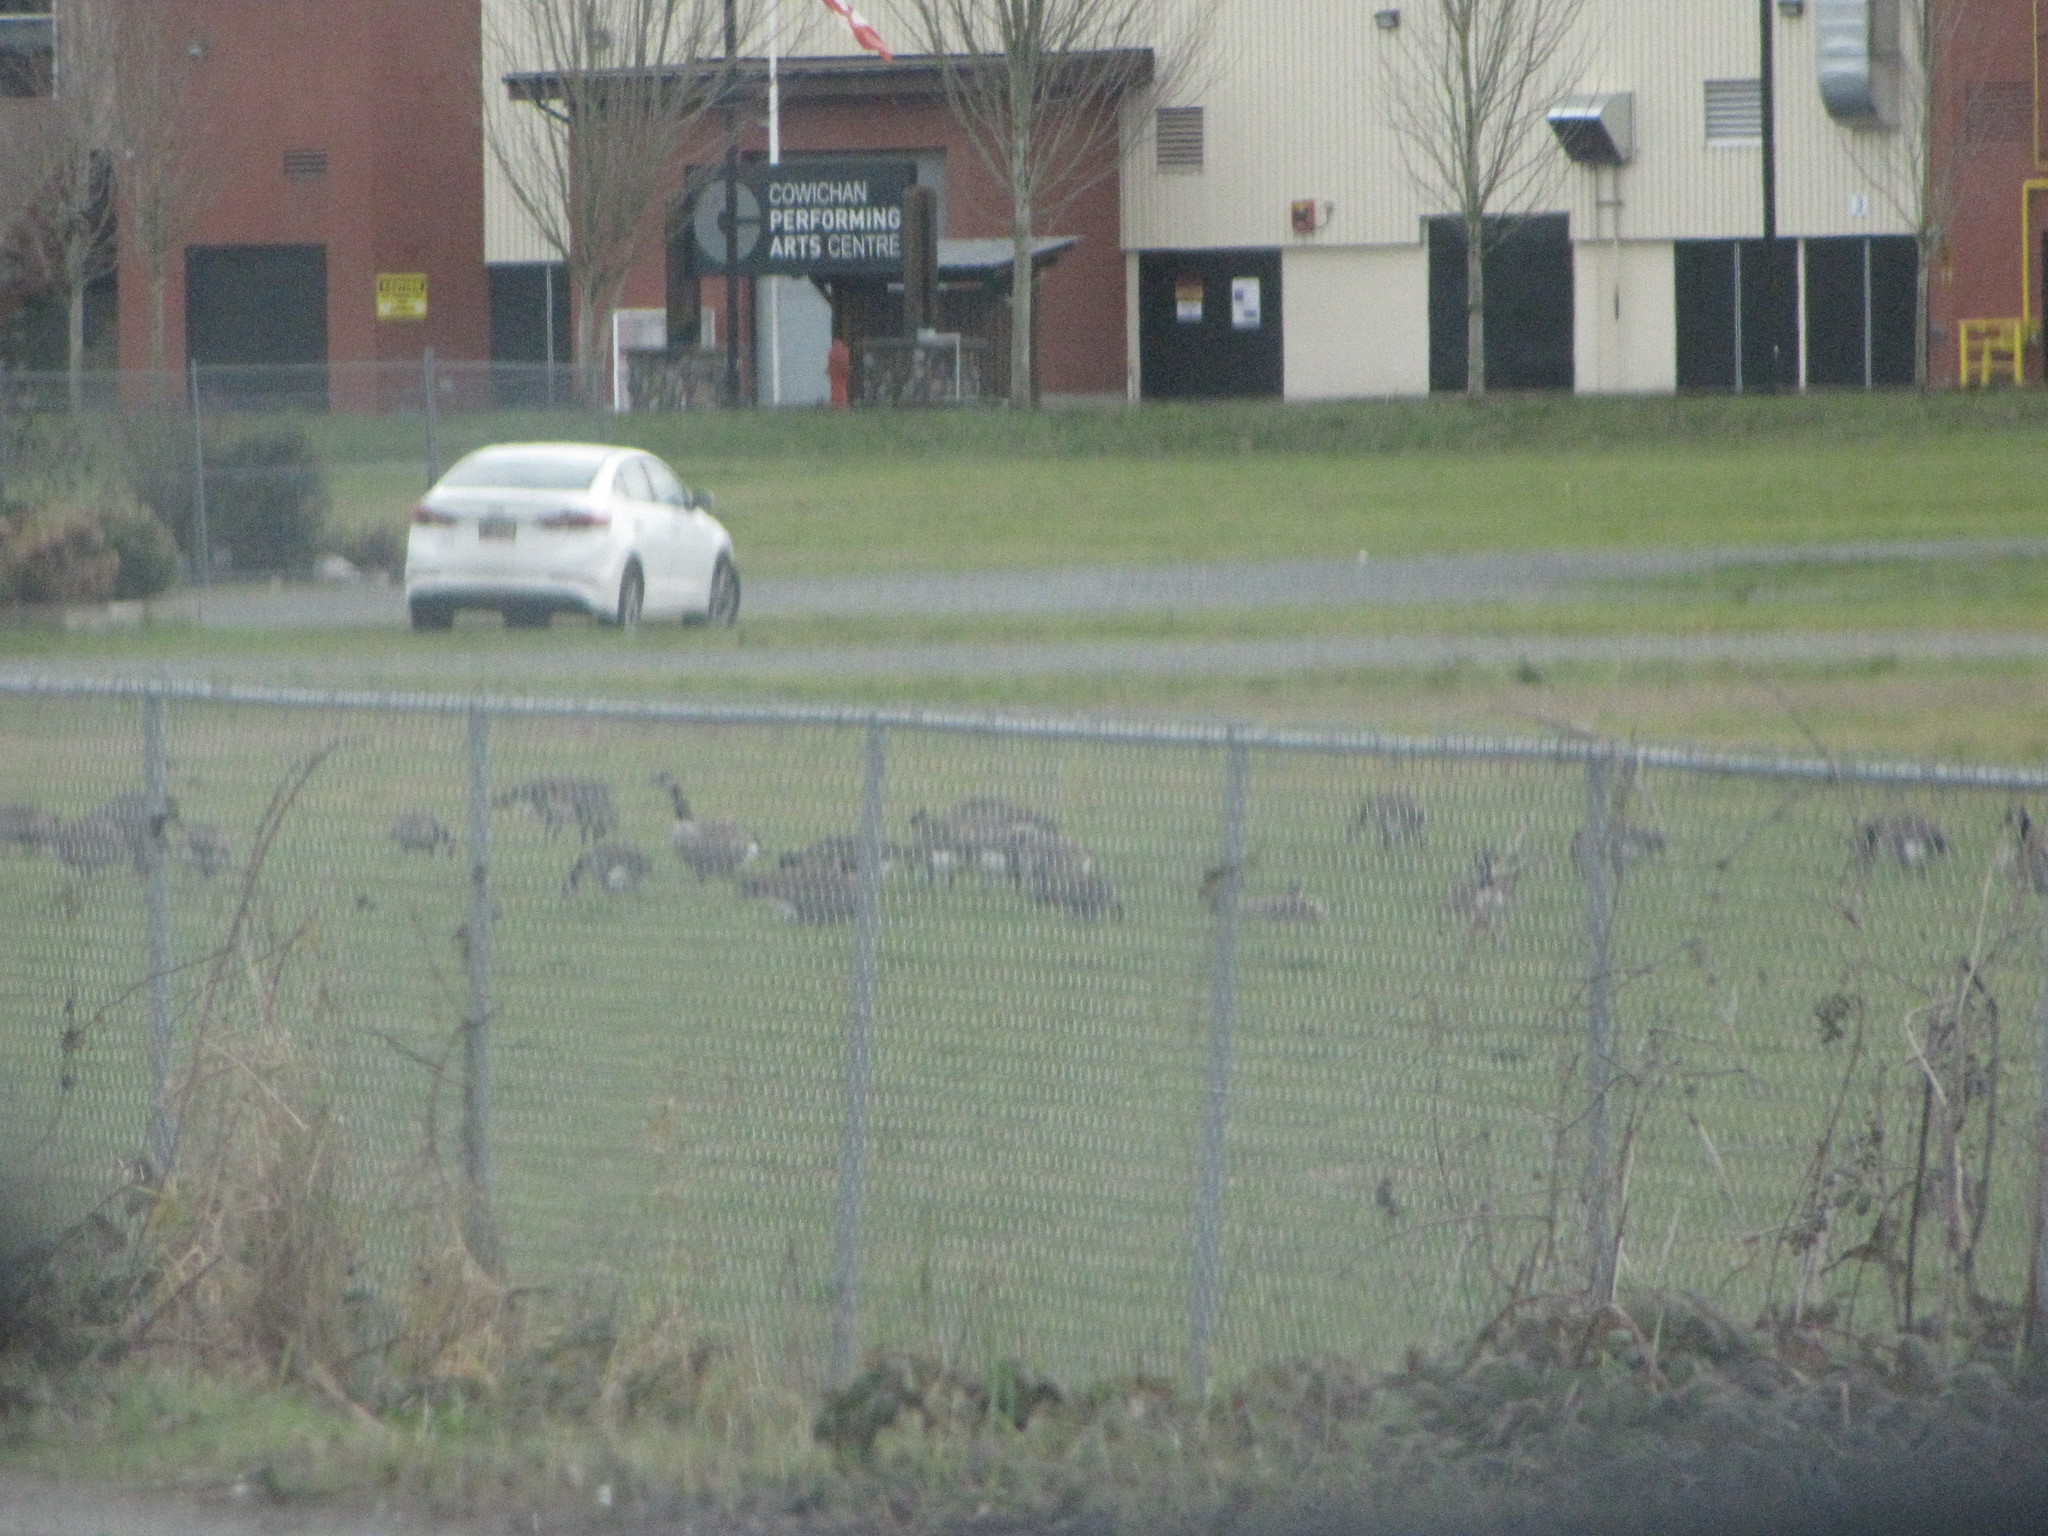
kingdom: Animalia
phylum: Chordata
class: Aves
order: Anseriformes
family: Anatidae
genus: Branta
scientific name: Branta canadensis
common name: Canada goose
